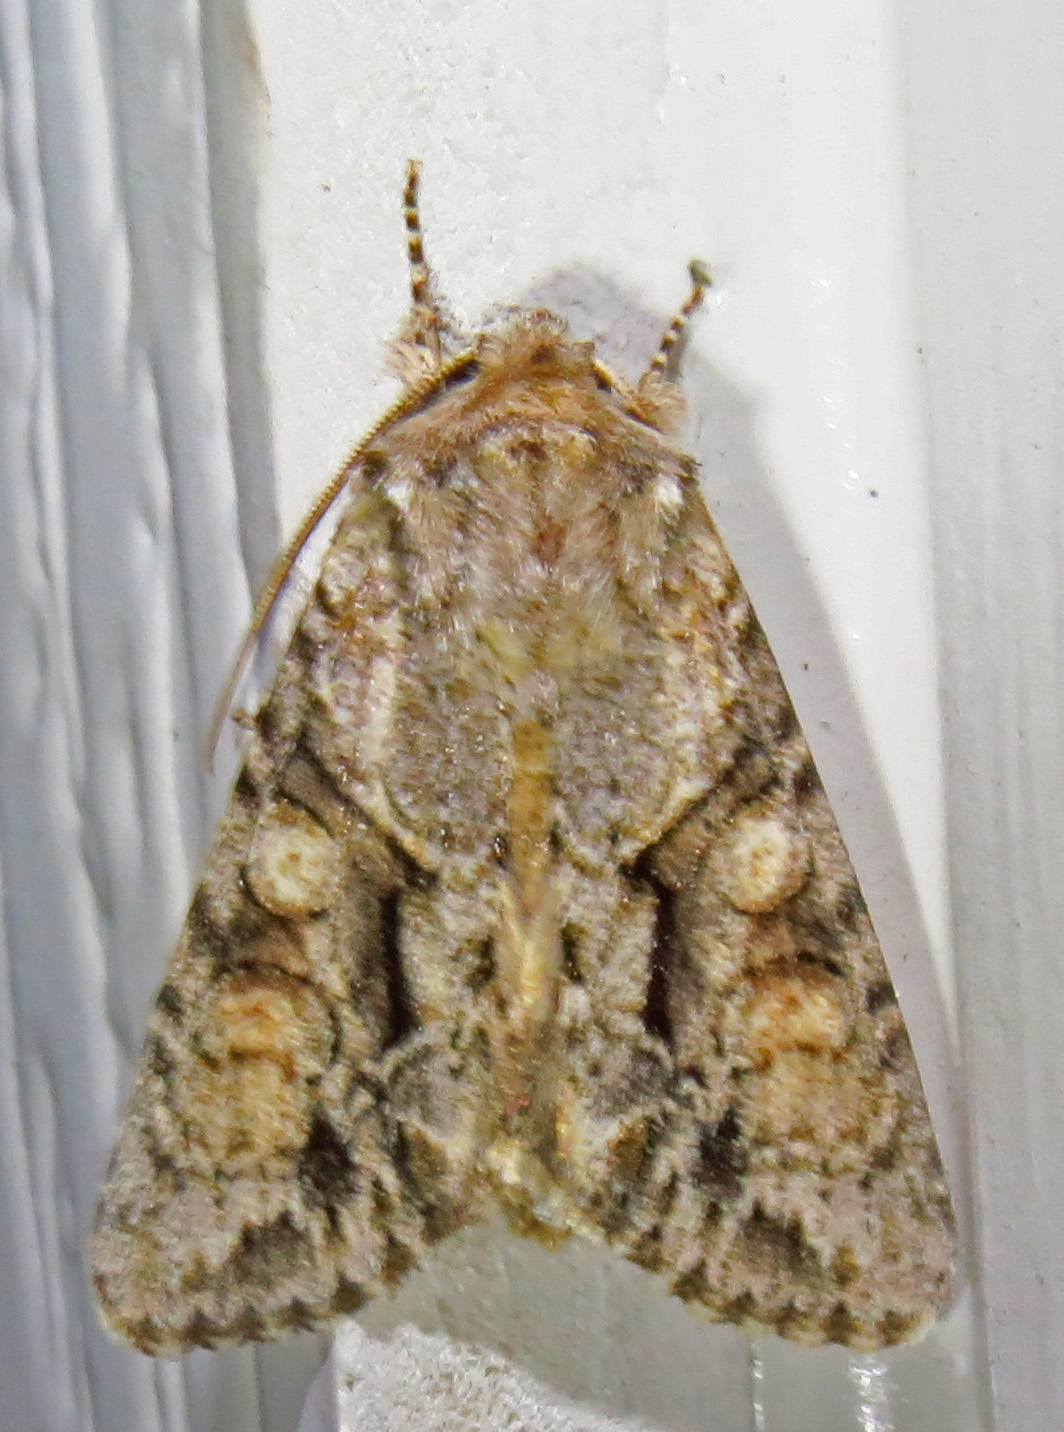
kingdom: Animalia
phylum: Arthropoda
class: Insecta
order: Lepidoptera
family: Noctuidae
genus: Achatia
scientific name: Achatia distincta
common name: Distinct quaker
